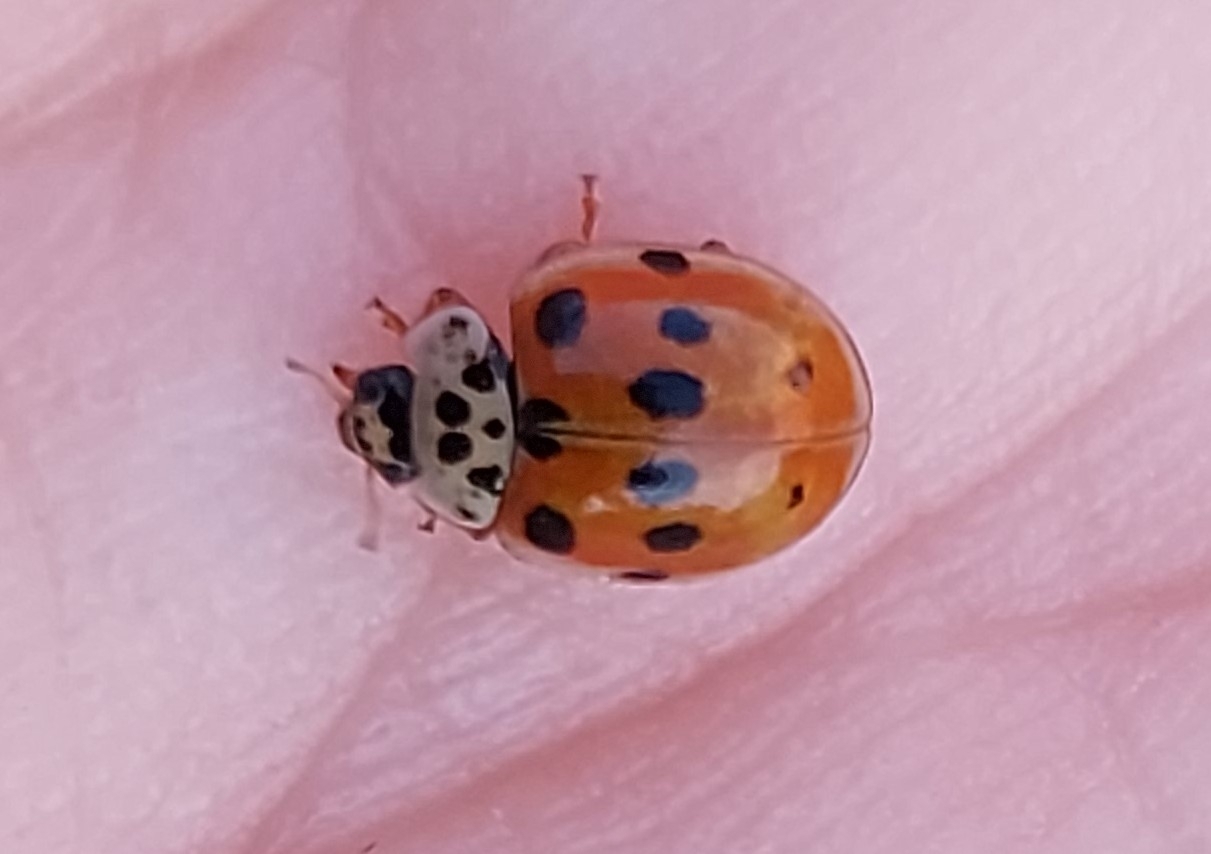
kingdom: Animalia
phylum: Arthropoda
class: Insecta
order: Coleoptera
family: Coccinellidae
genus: Adalia
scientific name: Adalia decempunctata
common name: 10-spot ladybird
